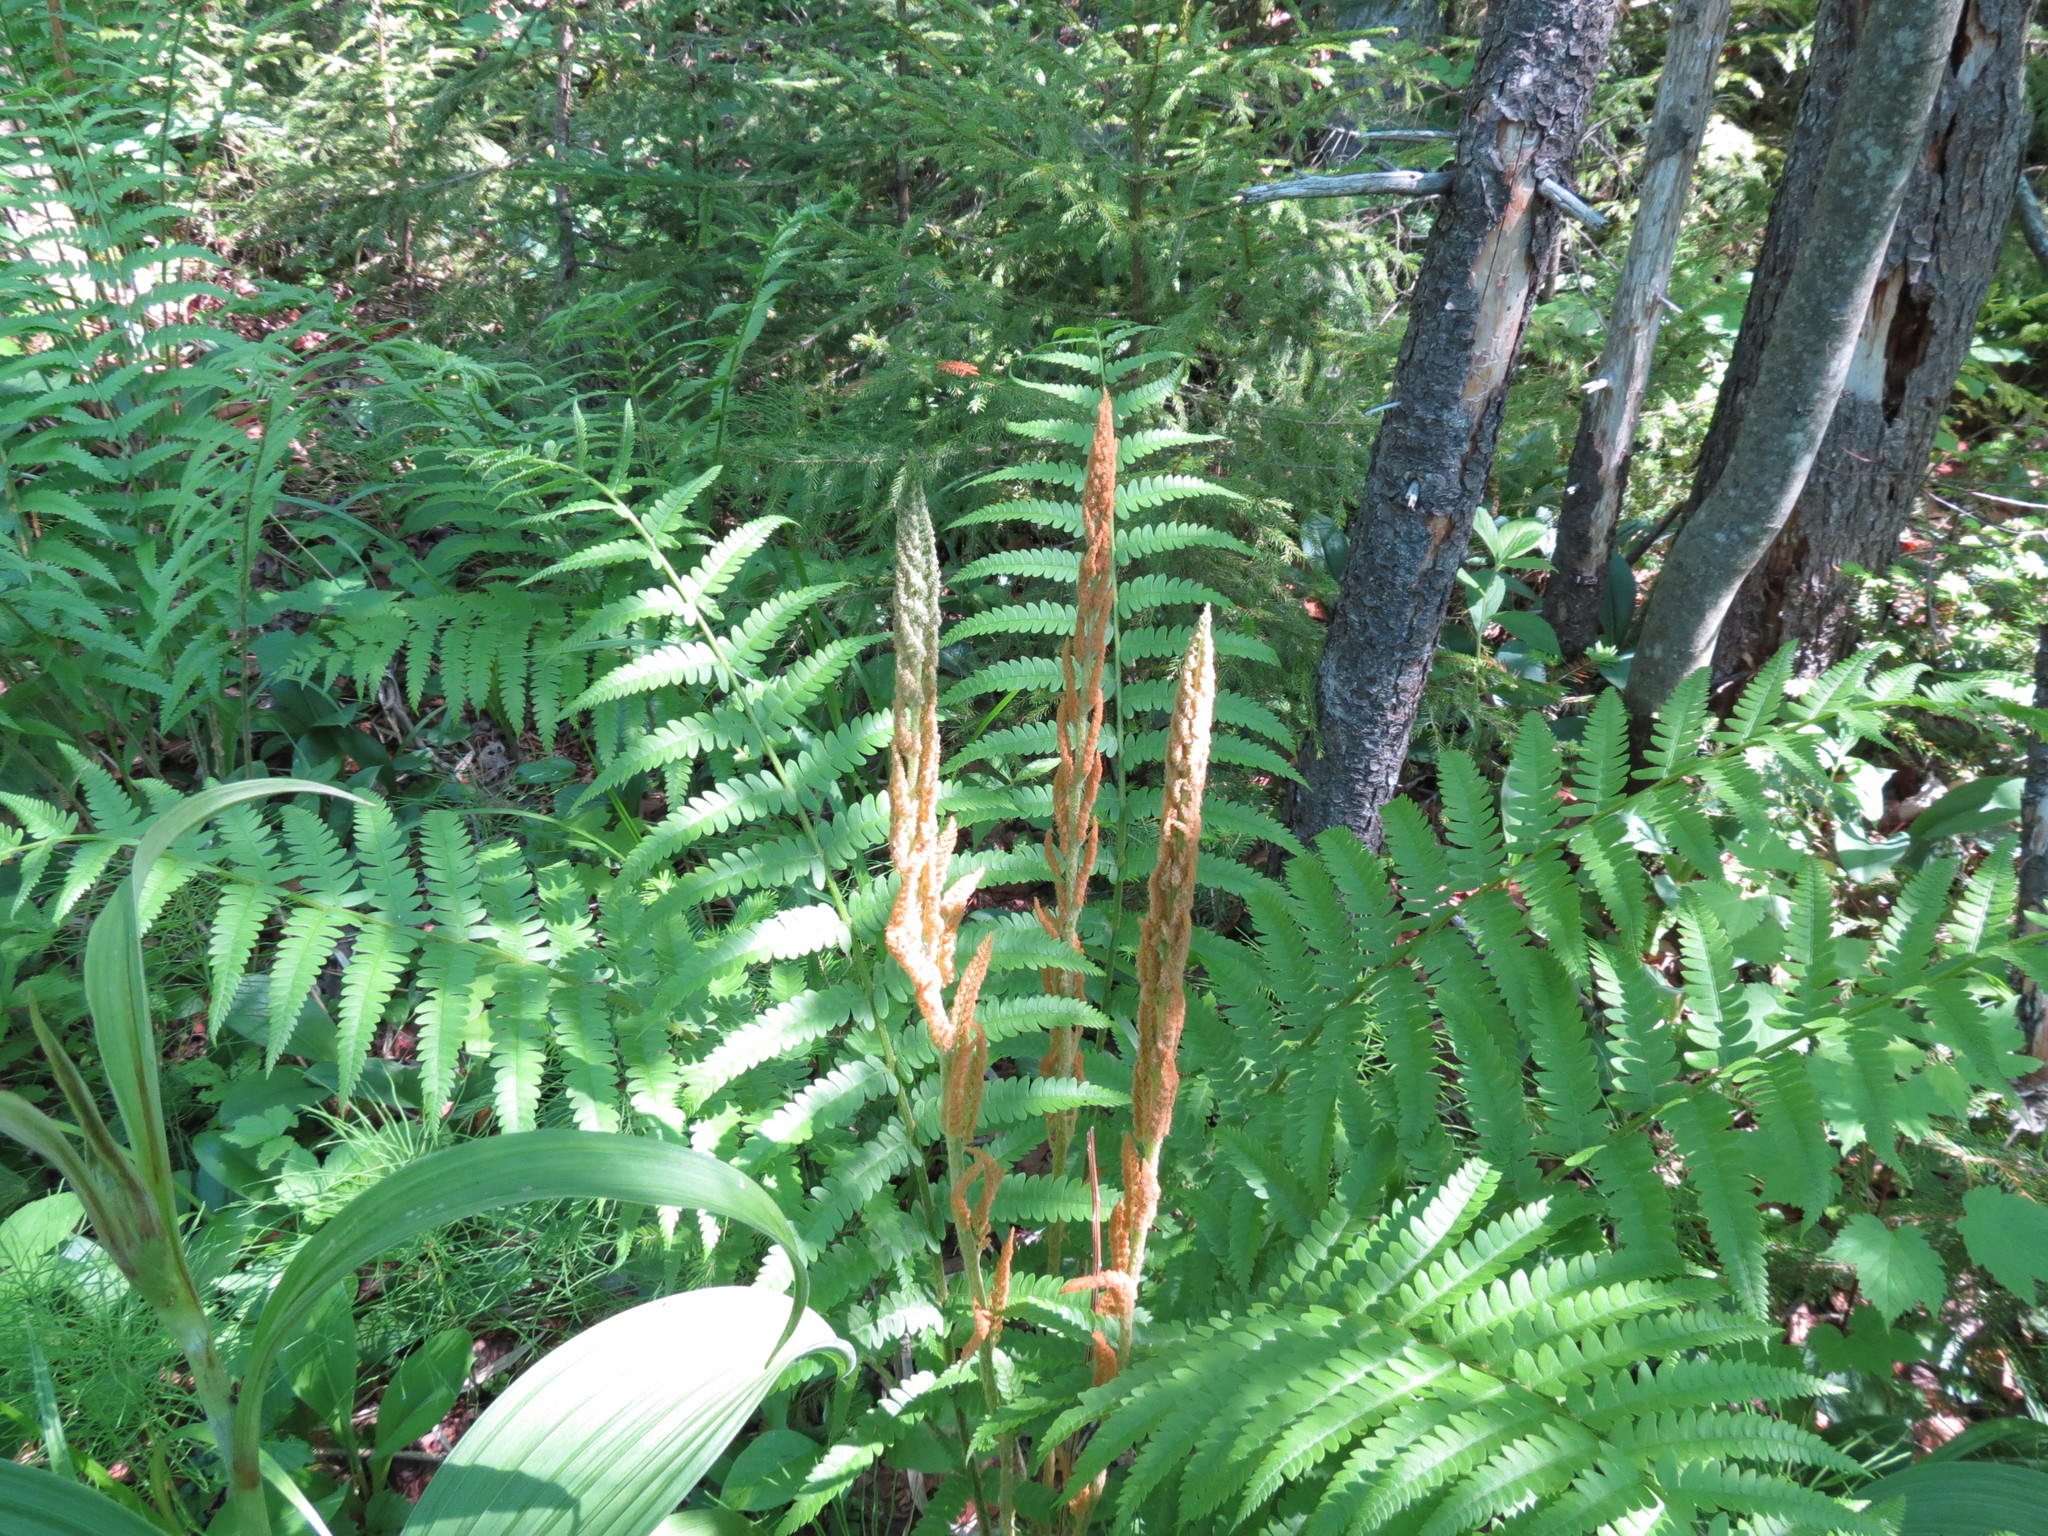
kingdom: Plantae
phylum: Tracheophyta
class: Polypodiopsida
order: Osmundales
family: Osmundaceae
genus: Osmundastrum
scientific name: Osmundastrum cinnamomeum
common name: Cinnamon fern
